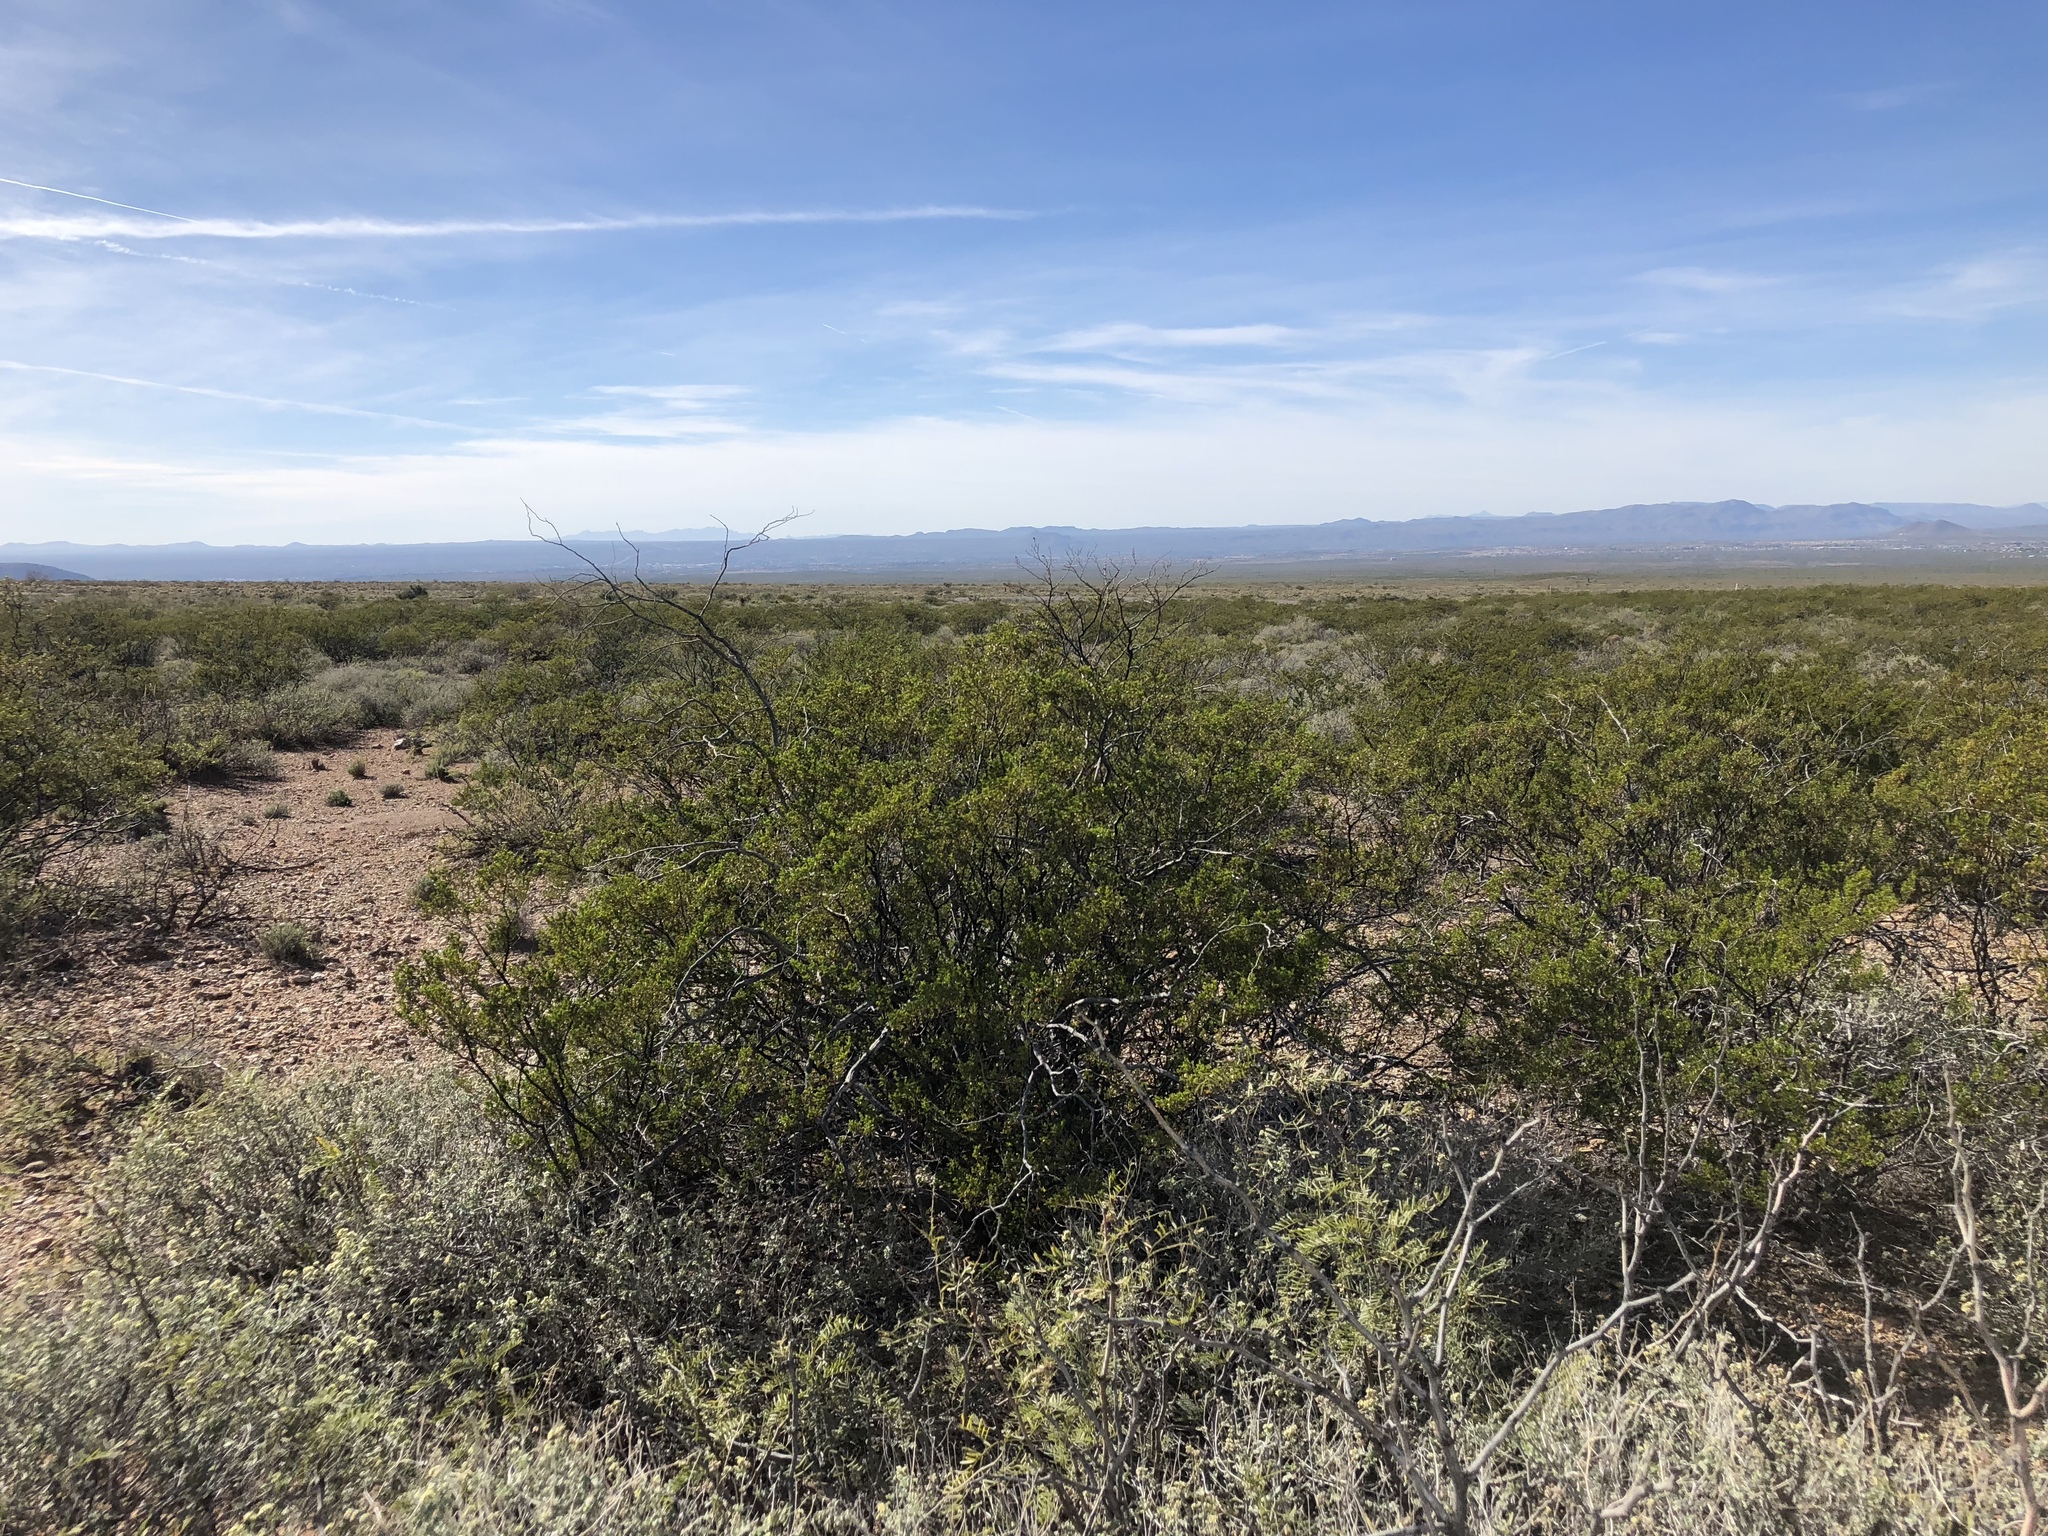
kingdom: Plantae
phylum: Tracheophyta
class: Magnoliopsida
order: Zygophyllales
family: Zygophyllaceae
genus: Larrea
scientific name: Larrea tridentata
